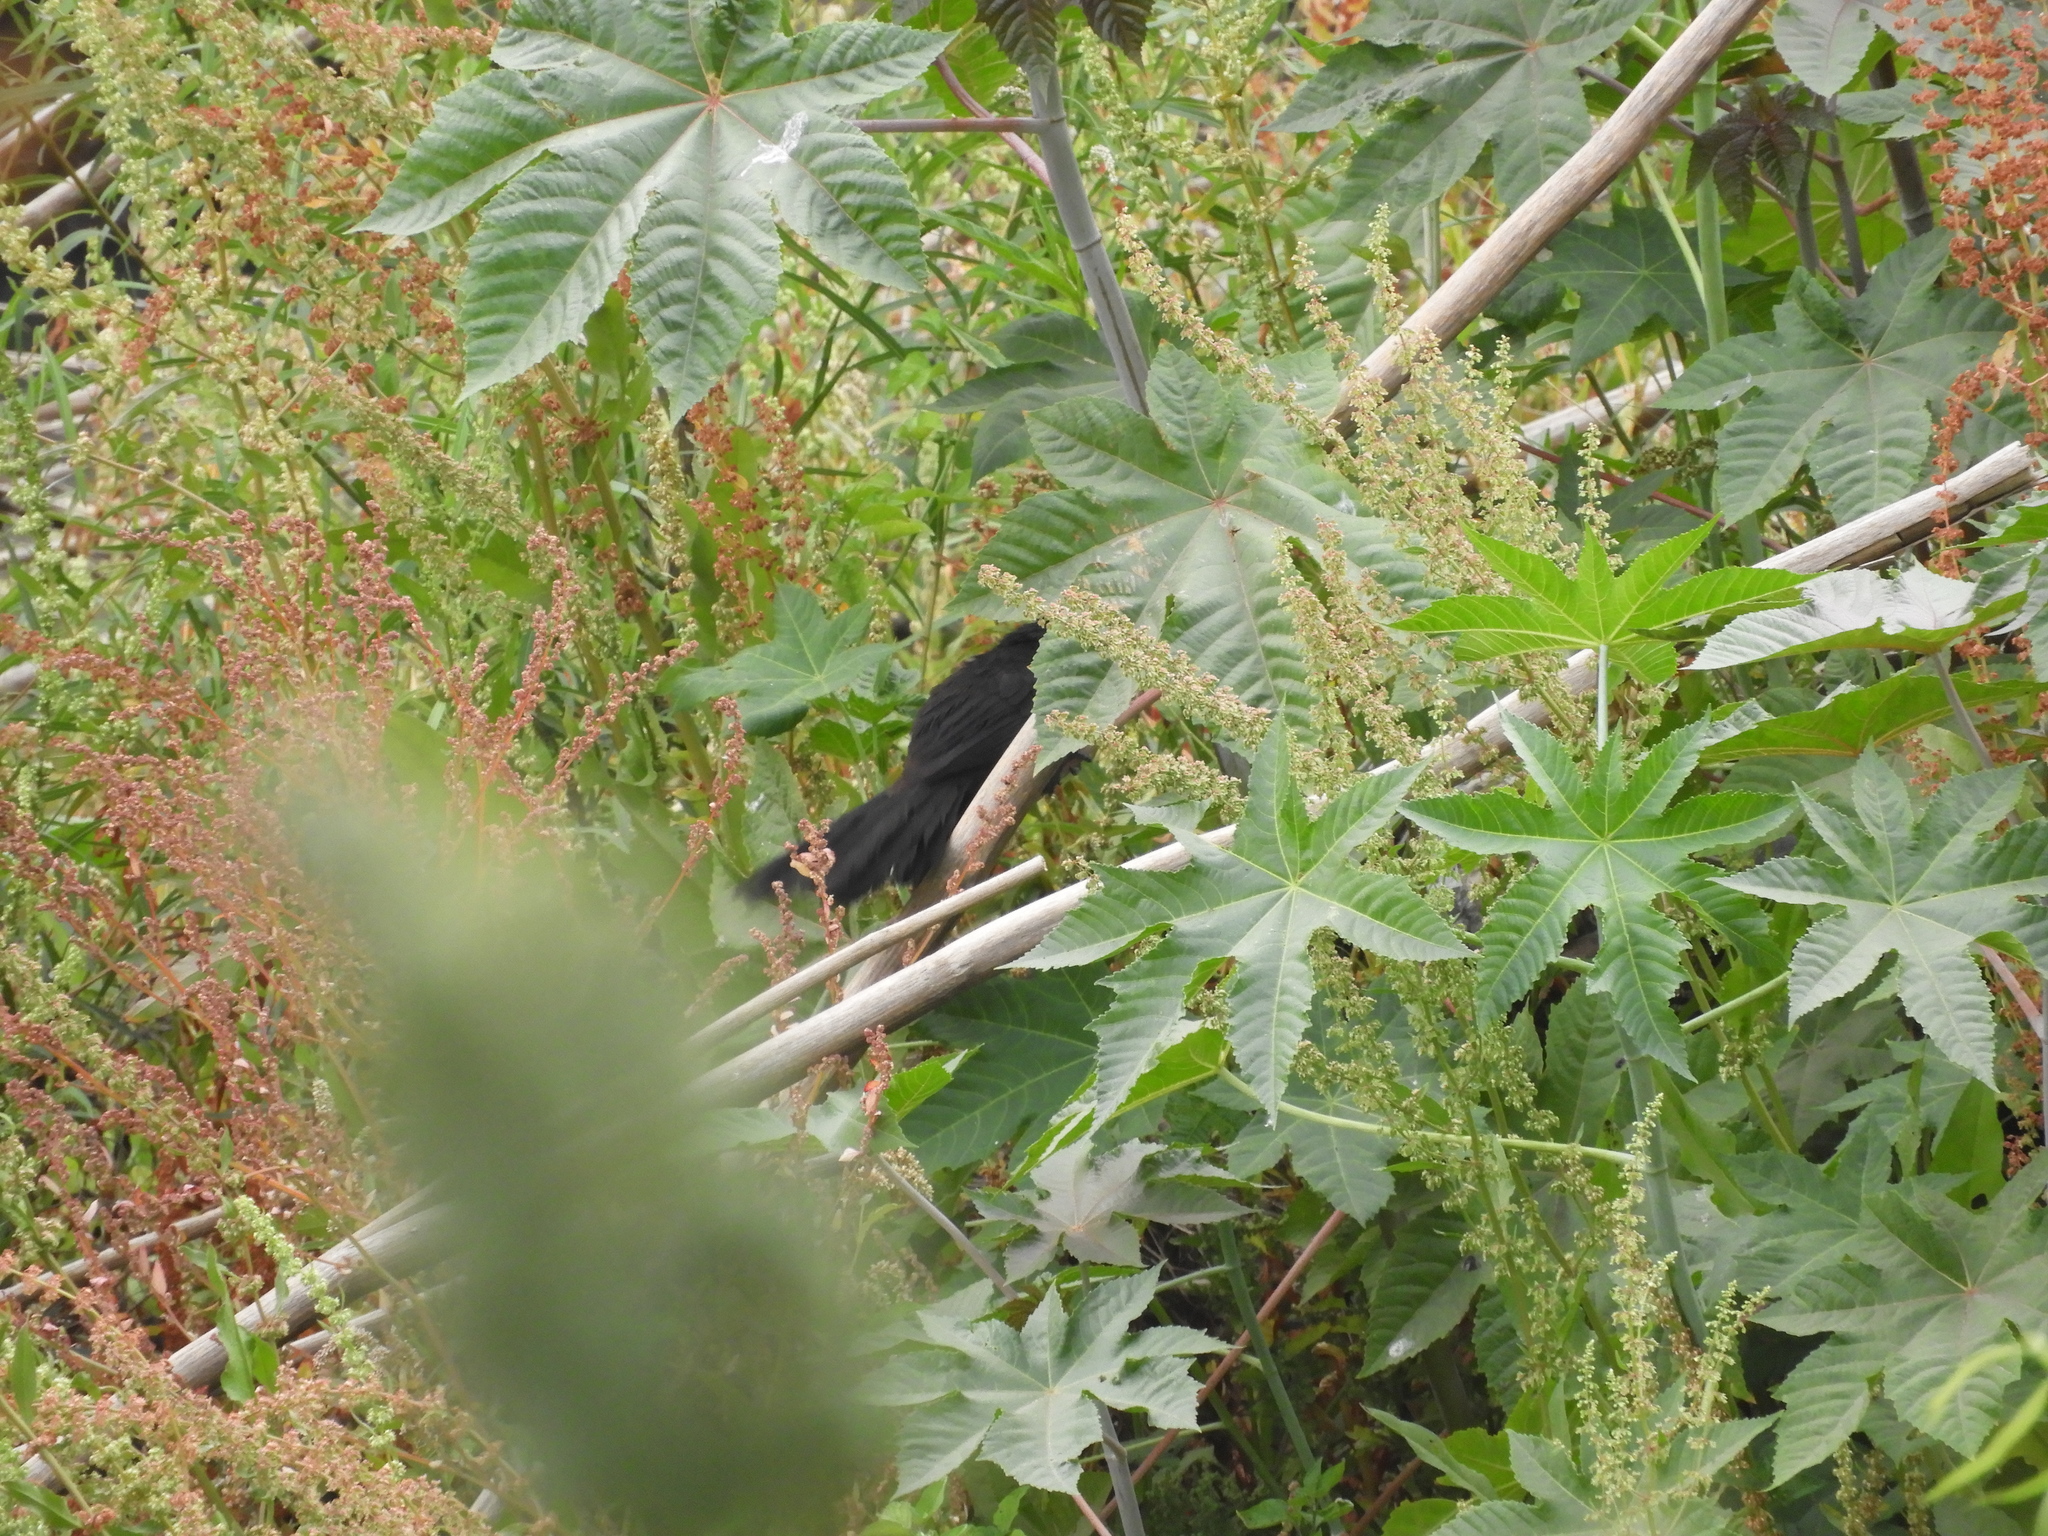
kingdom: Animalia
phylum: Chordata
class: Aves
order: Cuculiformes
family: Cuculidae
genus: Crotophaga
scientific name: Crotophaga sulcirostris
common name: Groove-billed ani
